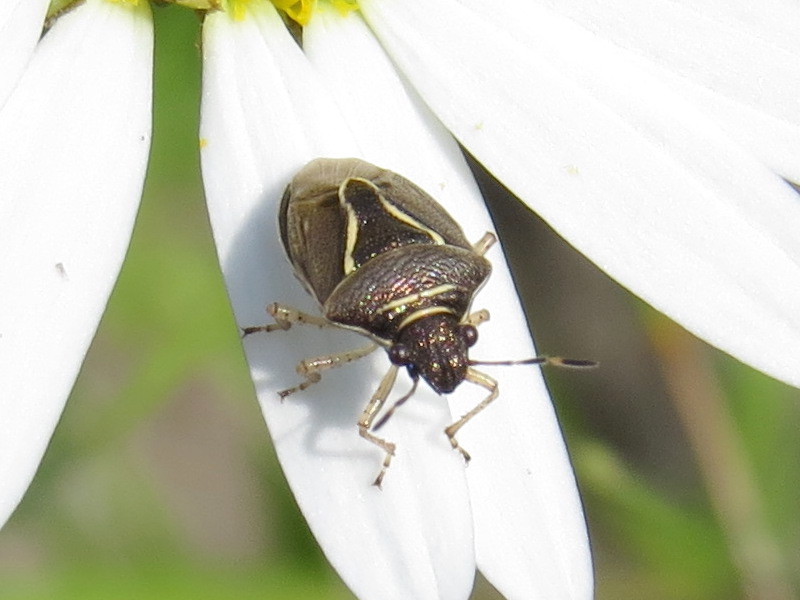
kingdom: Animalia
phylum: Arthropoda
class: Insecta
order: Hemiptera
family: Pentatomidae
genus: Mormidea
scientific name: Mormidea lugens
